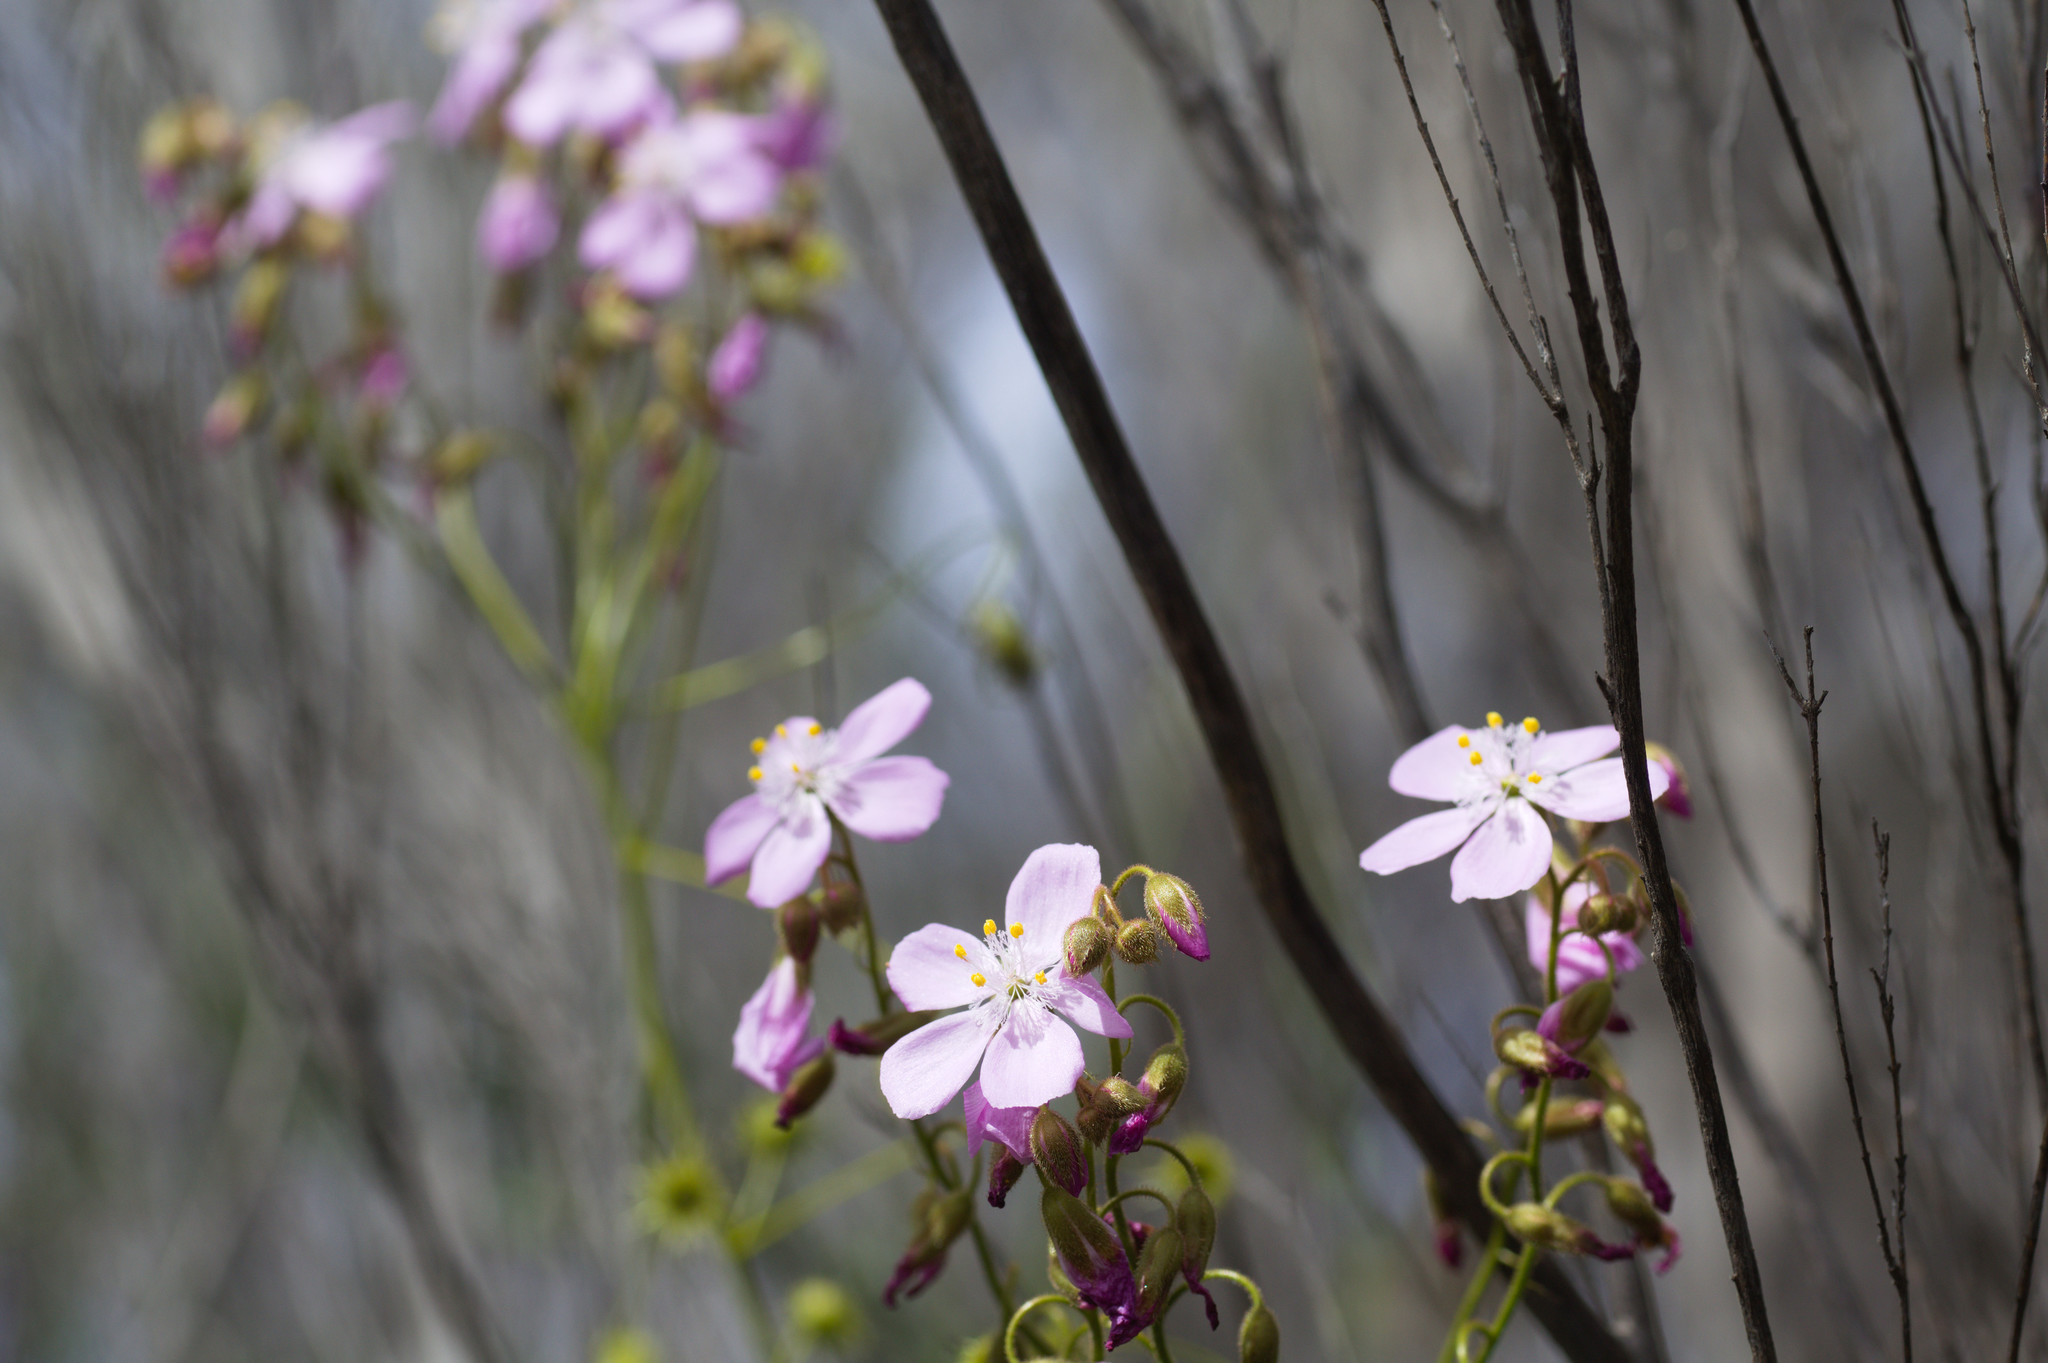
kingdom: Plantae
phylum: Tracheophyta
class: Magnoliopsida
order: Caryophyllales
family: Droseraceae
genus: Drosera
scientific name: Drosera stricticaulis
